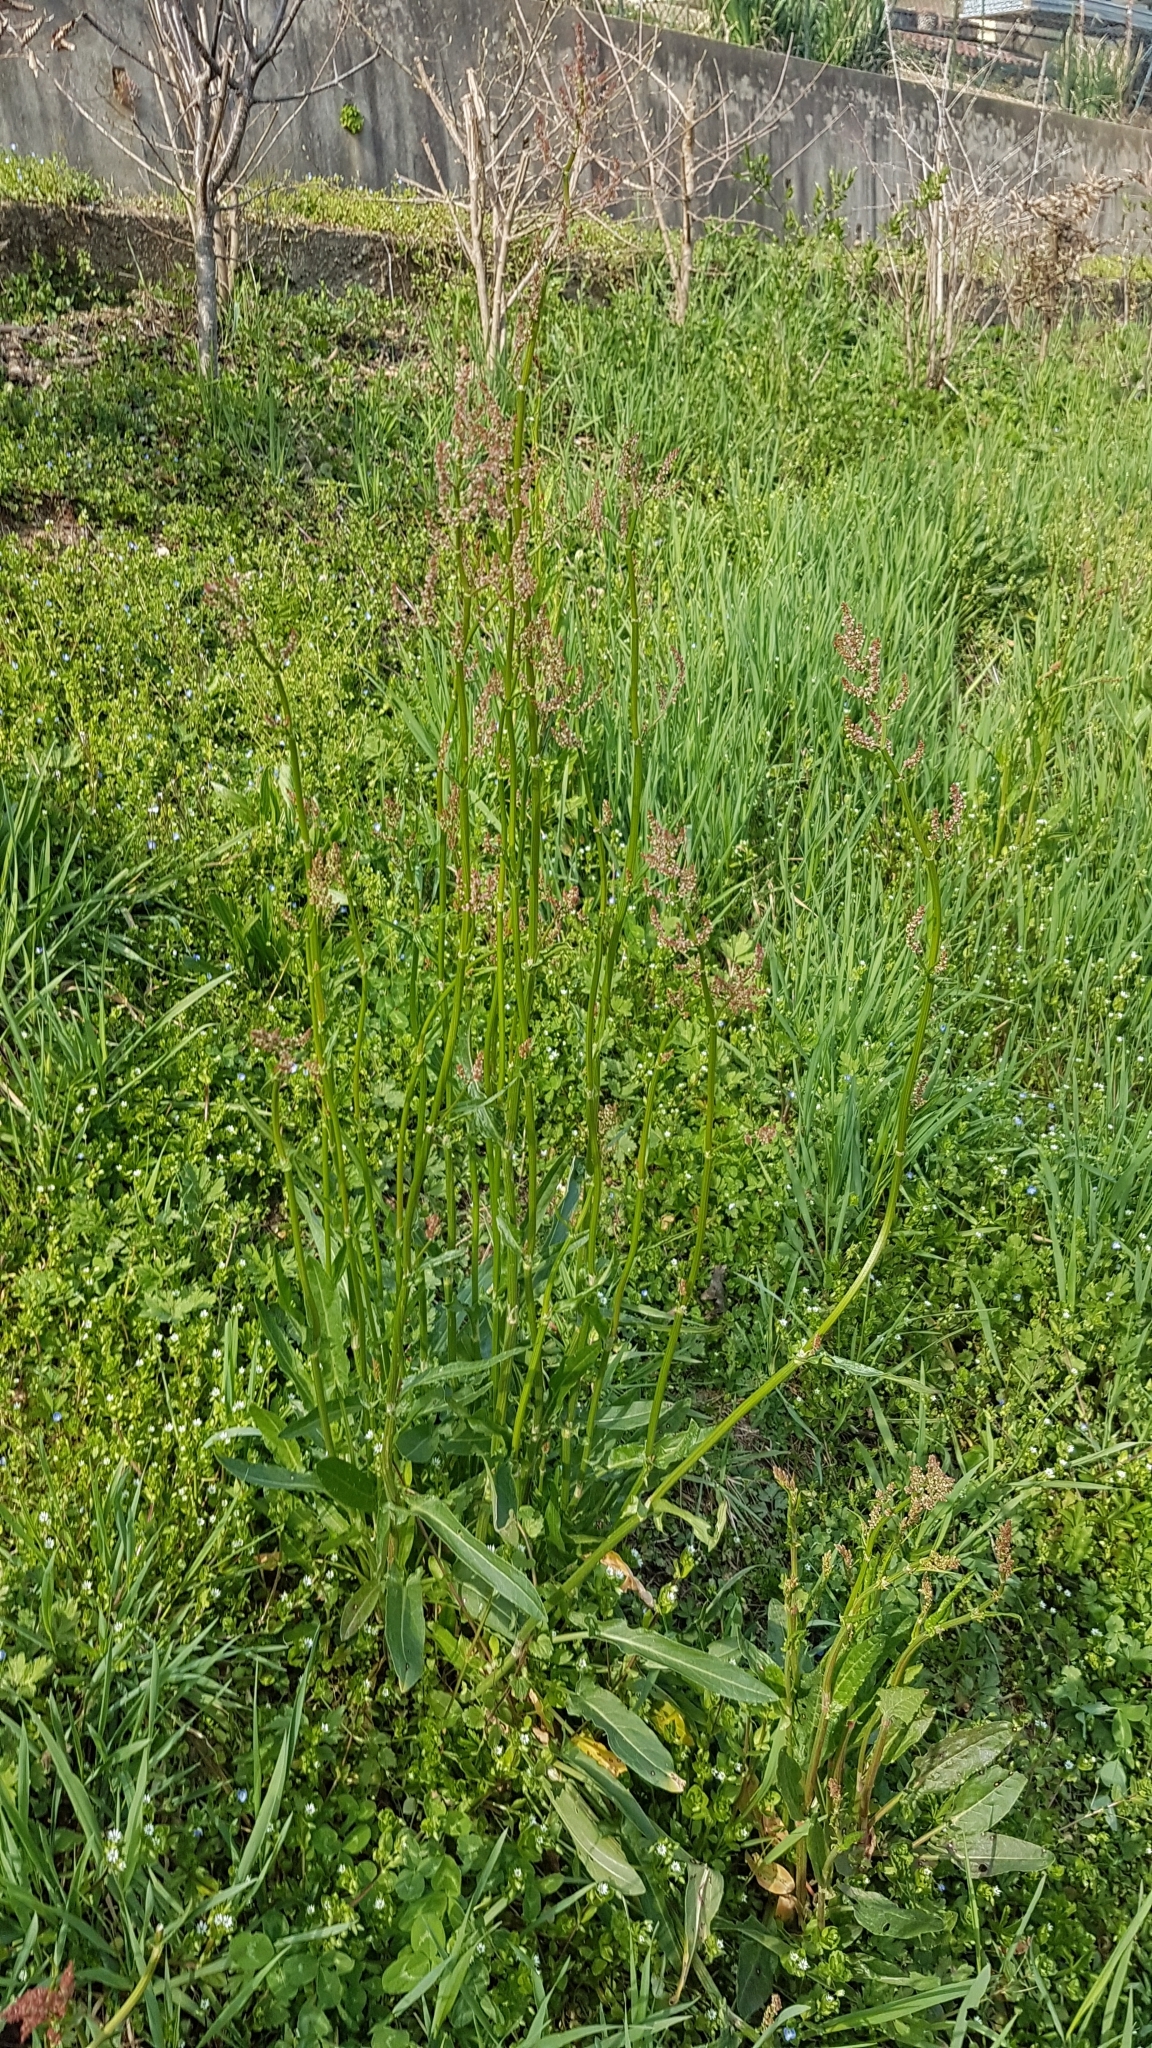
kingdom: Plantae
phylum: Tracheophyta
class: Magnoliopsida
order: Caryophyllales
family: Polygonaceae
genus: Rumex
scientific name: Rumex acetosa
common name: Garden sorrel
